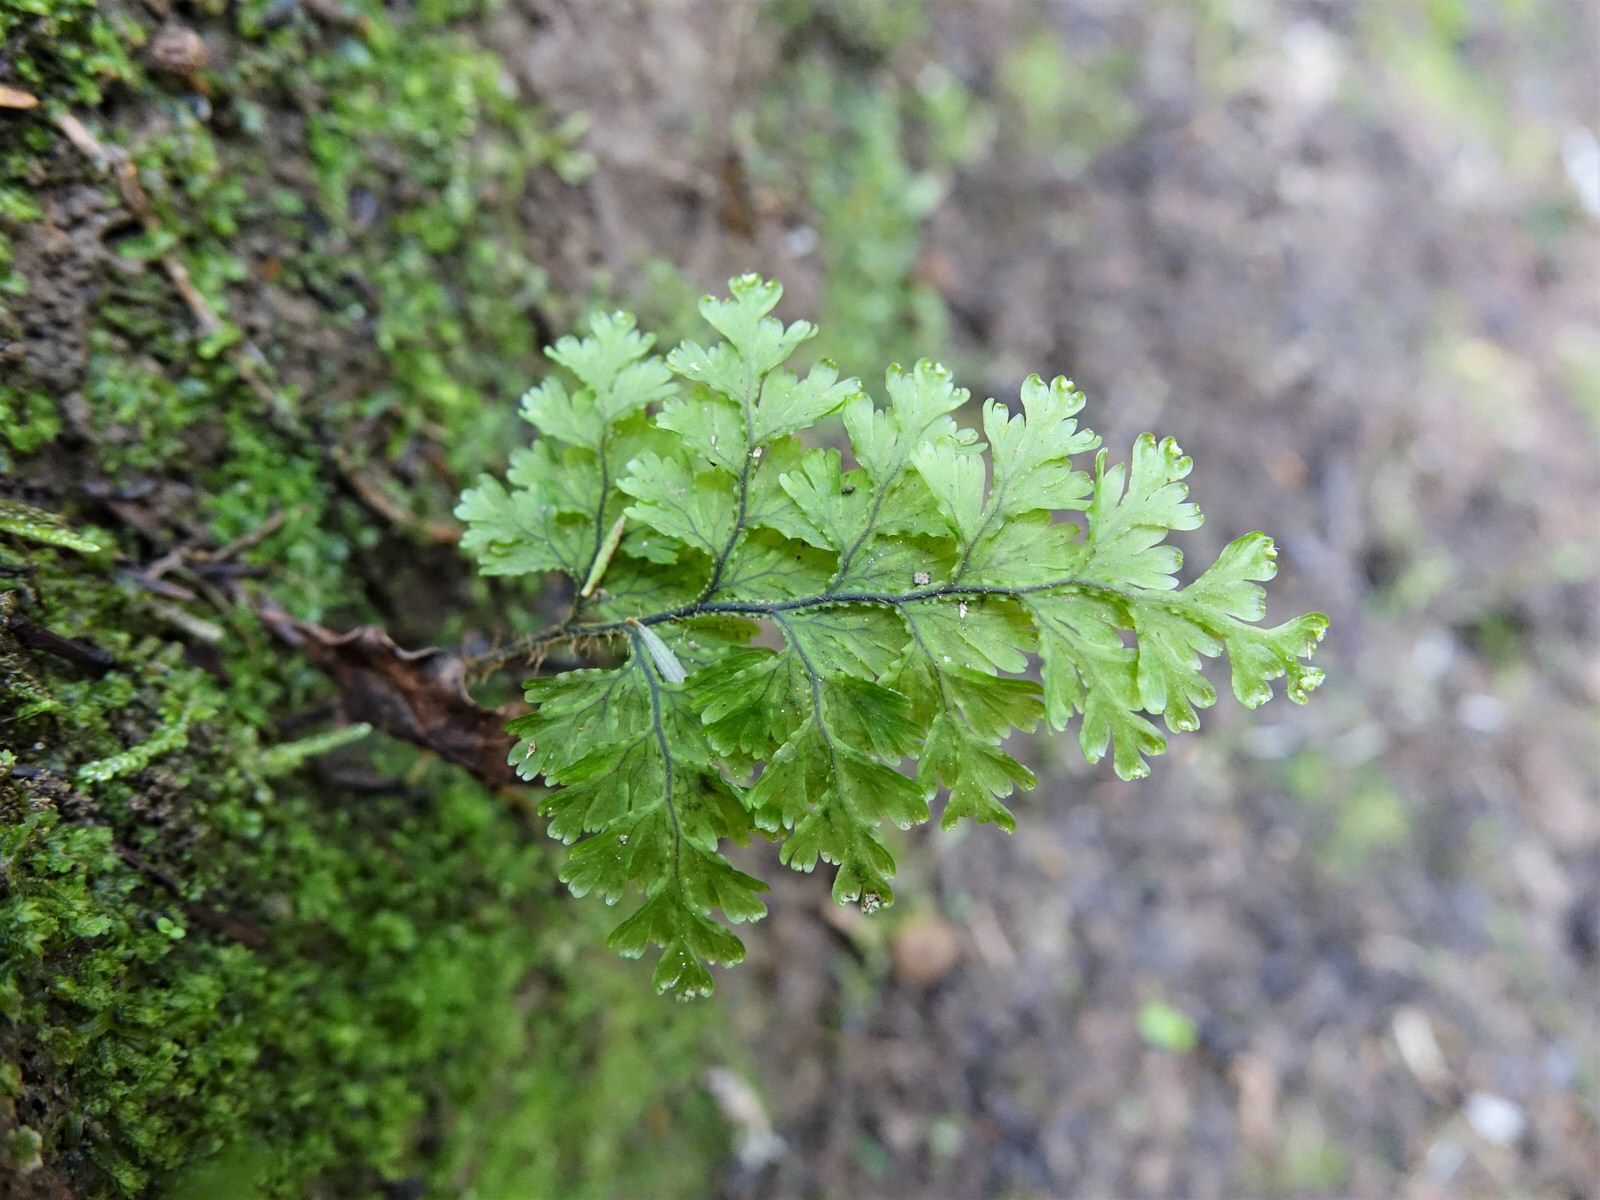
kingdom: Plantae
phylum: Tracheophyta
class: Polypodiopsida
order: Hymenophyllales
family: Hymenophyllaceae
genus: Hymenophyllum
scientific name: Hymenophyllum scabrum
